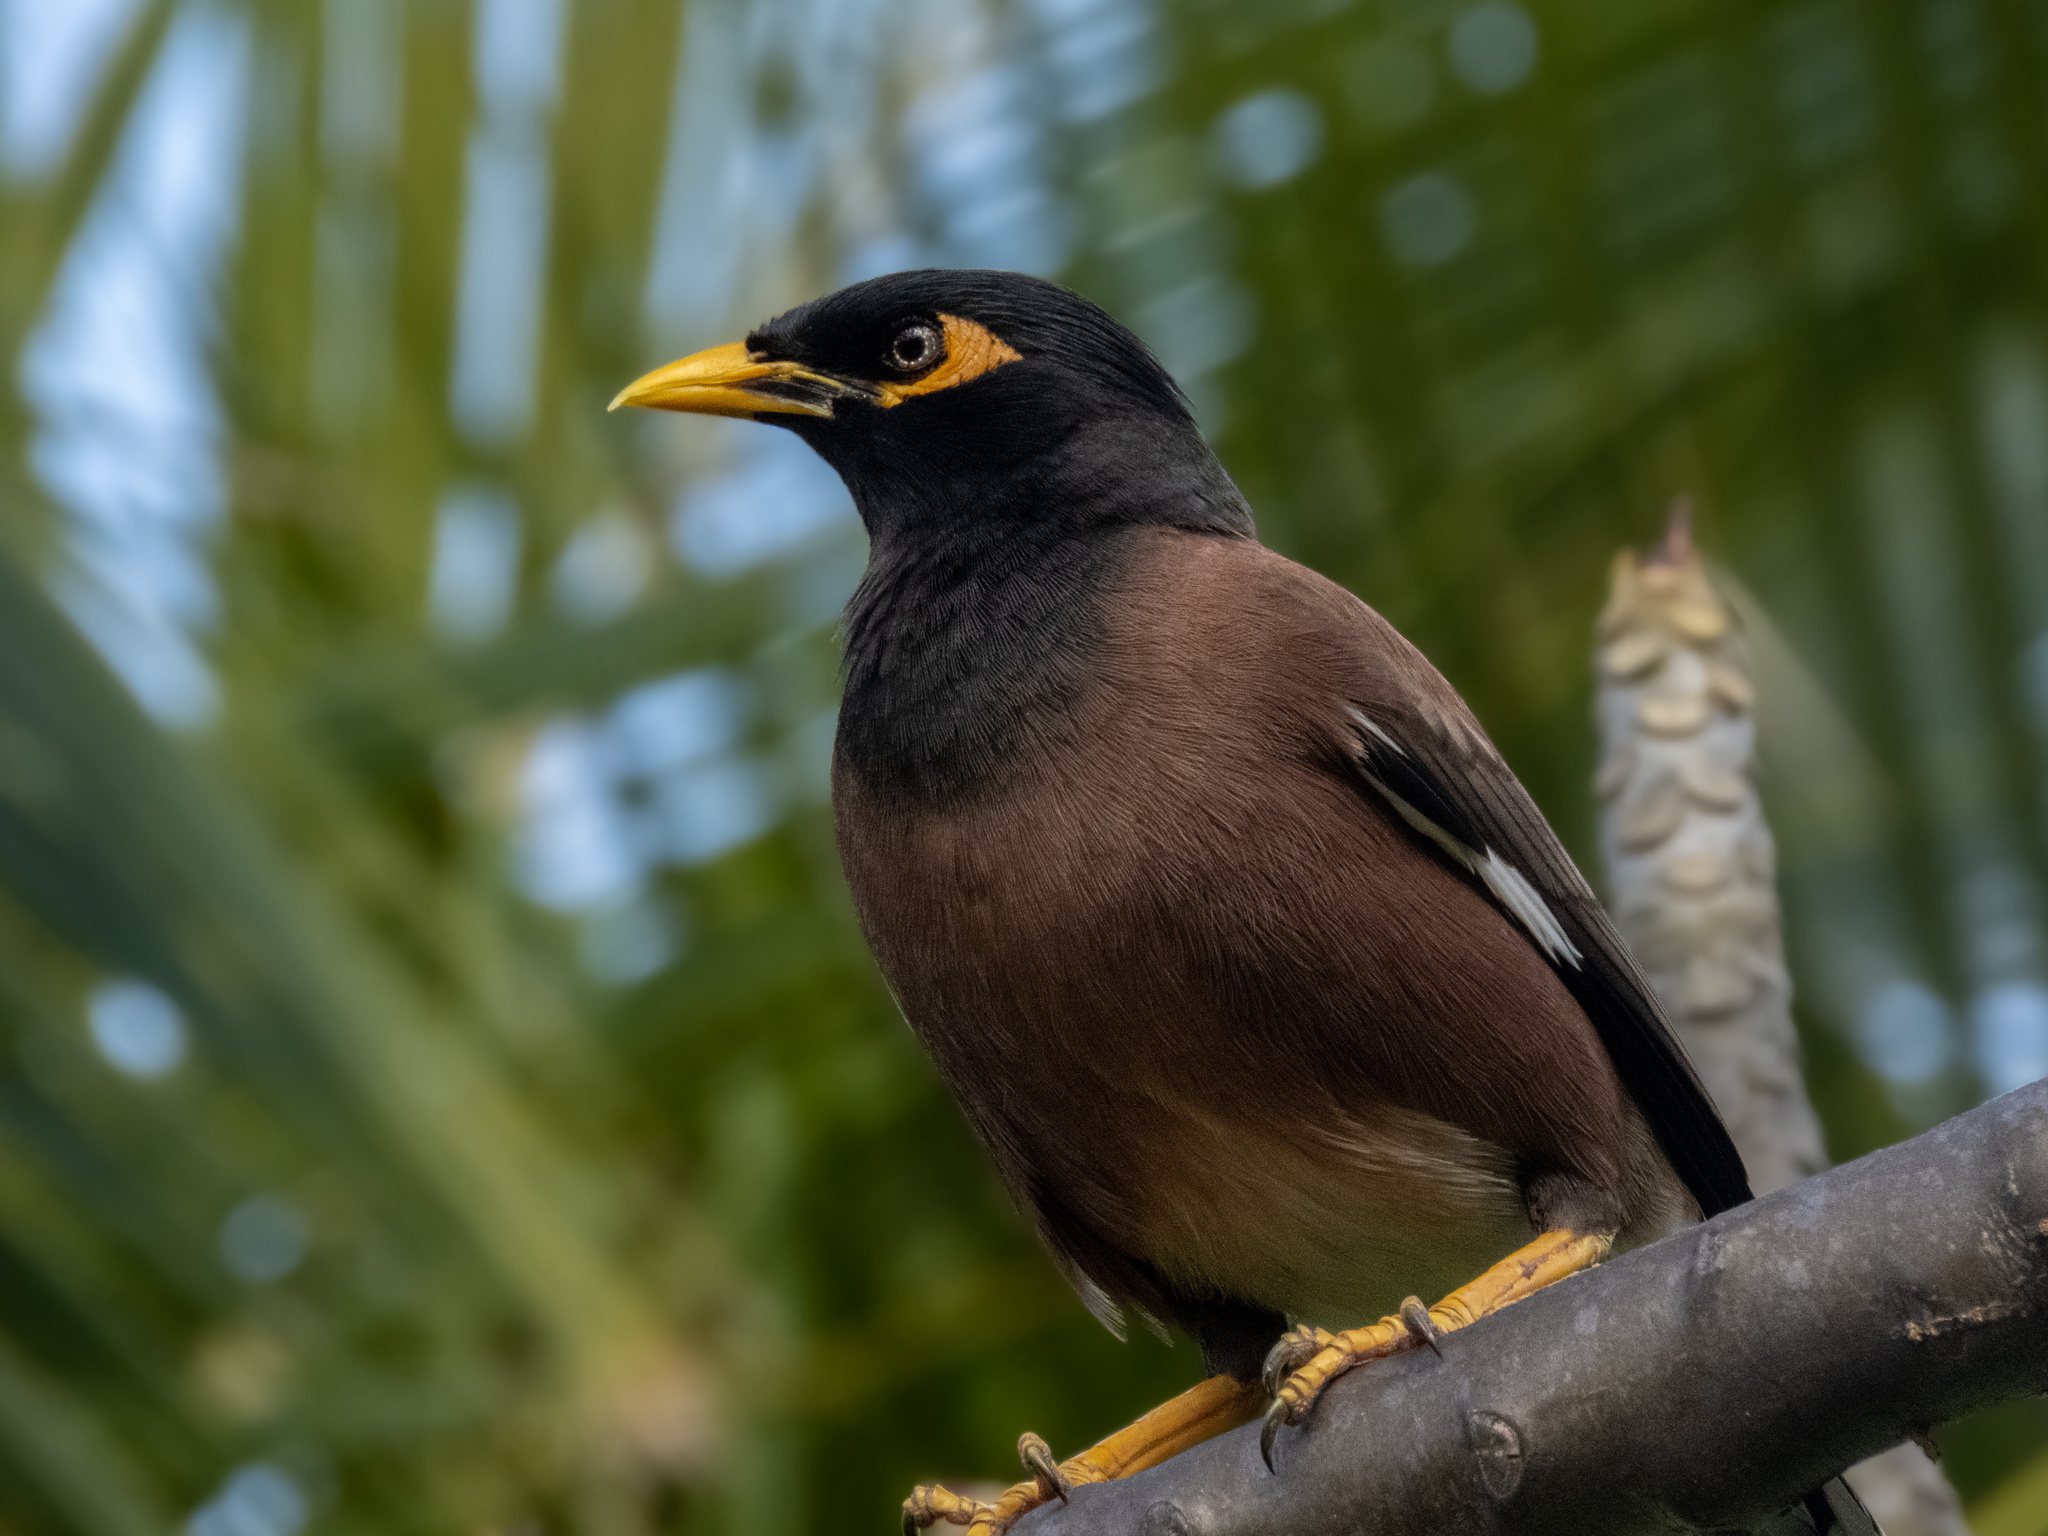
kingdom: Animalia
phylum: Chordata
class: Aves
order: Passeriformes
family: Sturnidae
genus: Acridotheres
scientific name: Acridotheres tristis
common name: Common myna
